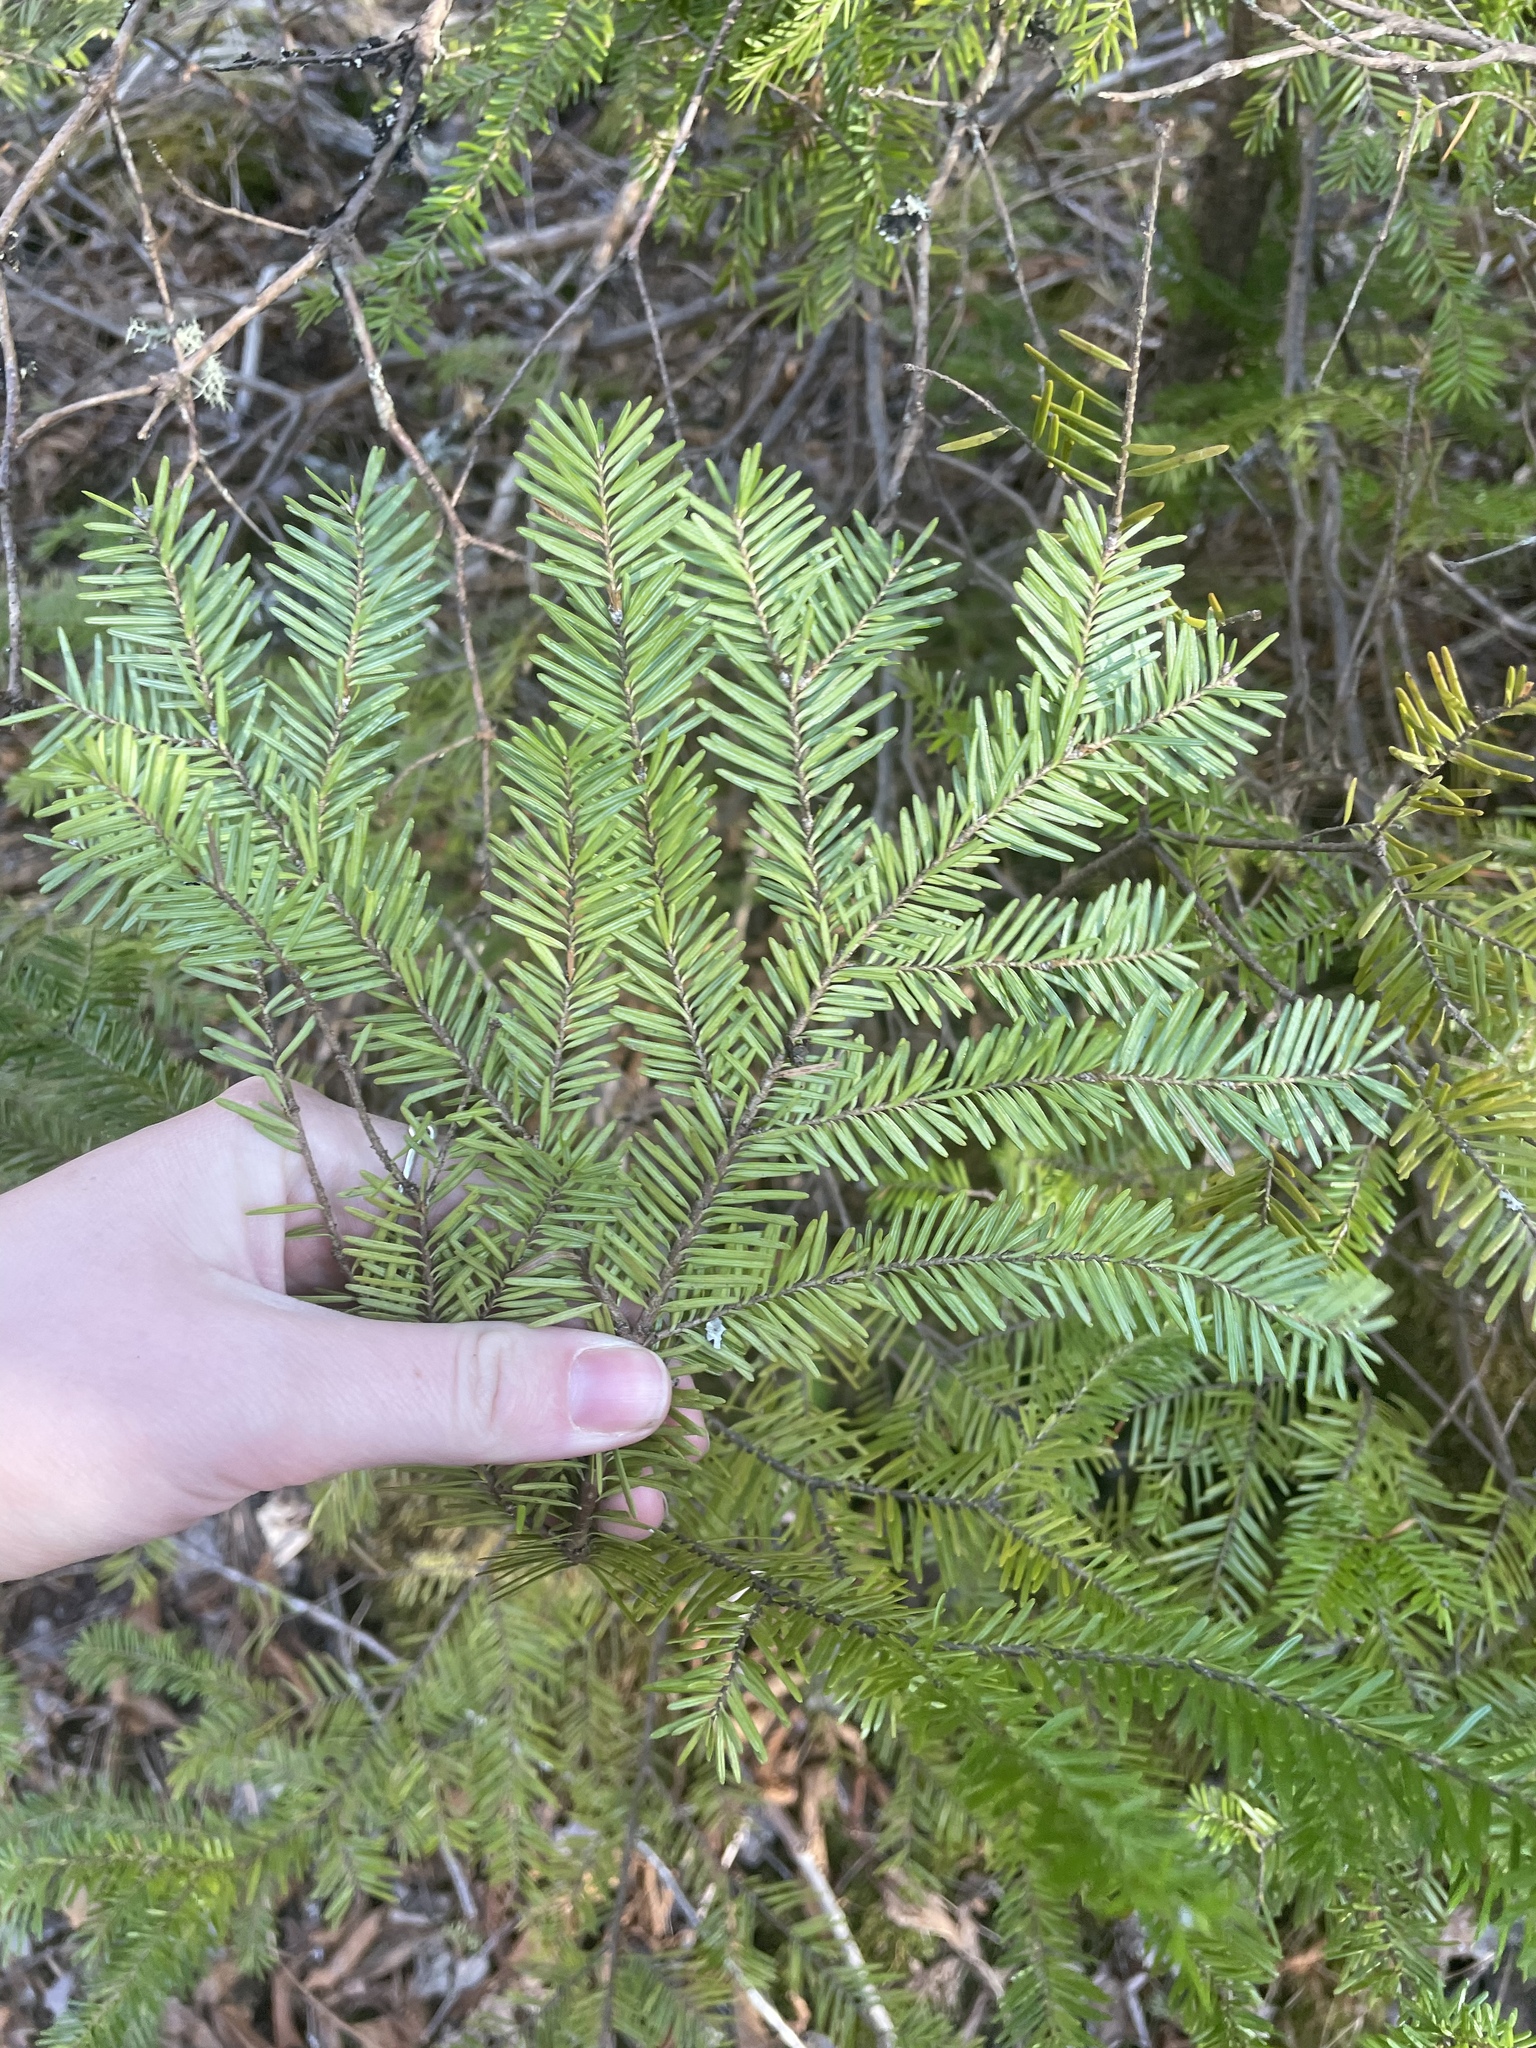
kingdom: Plantae
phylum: Tracheophyta
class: Pinopsida
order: Pinales
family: Pinaceae
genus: Abies
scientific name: Abies balsamea
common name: Balsam fir
